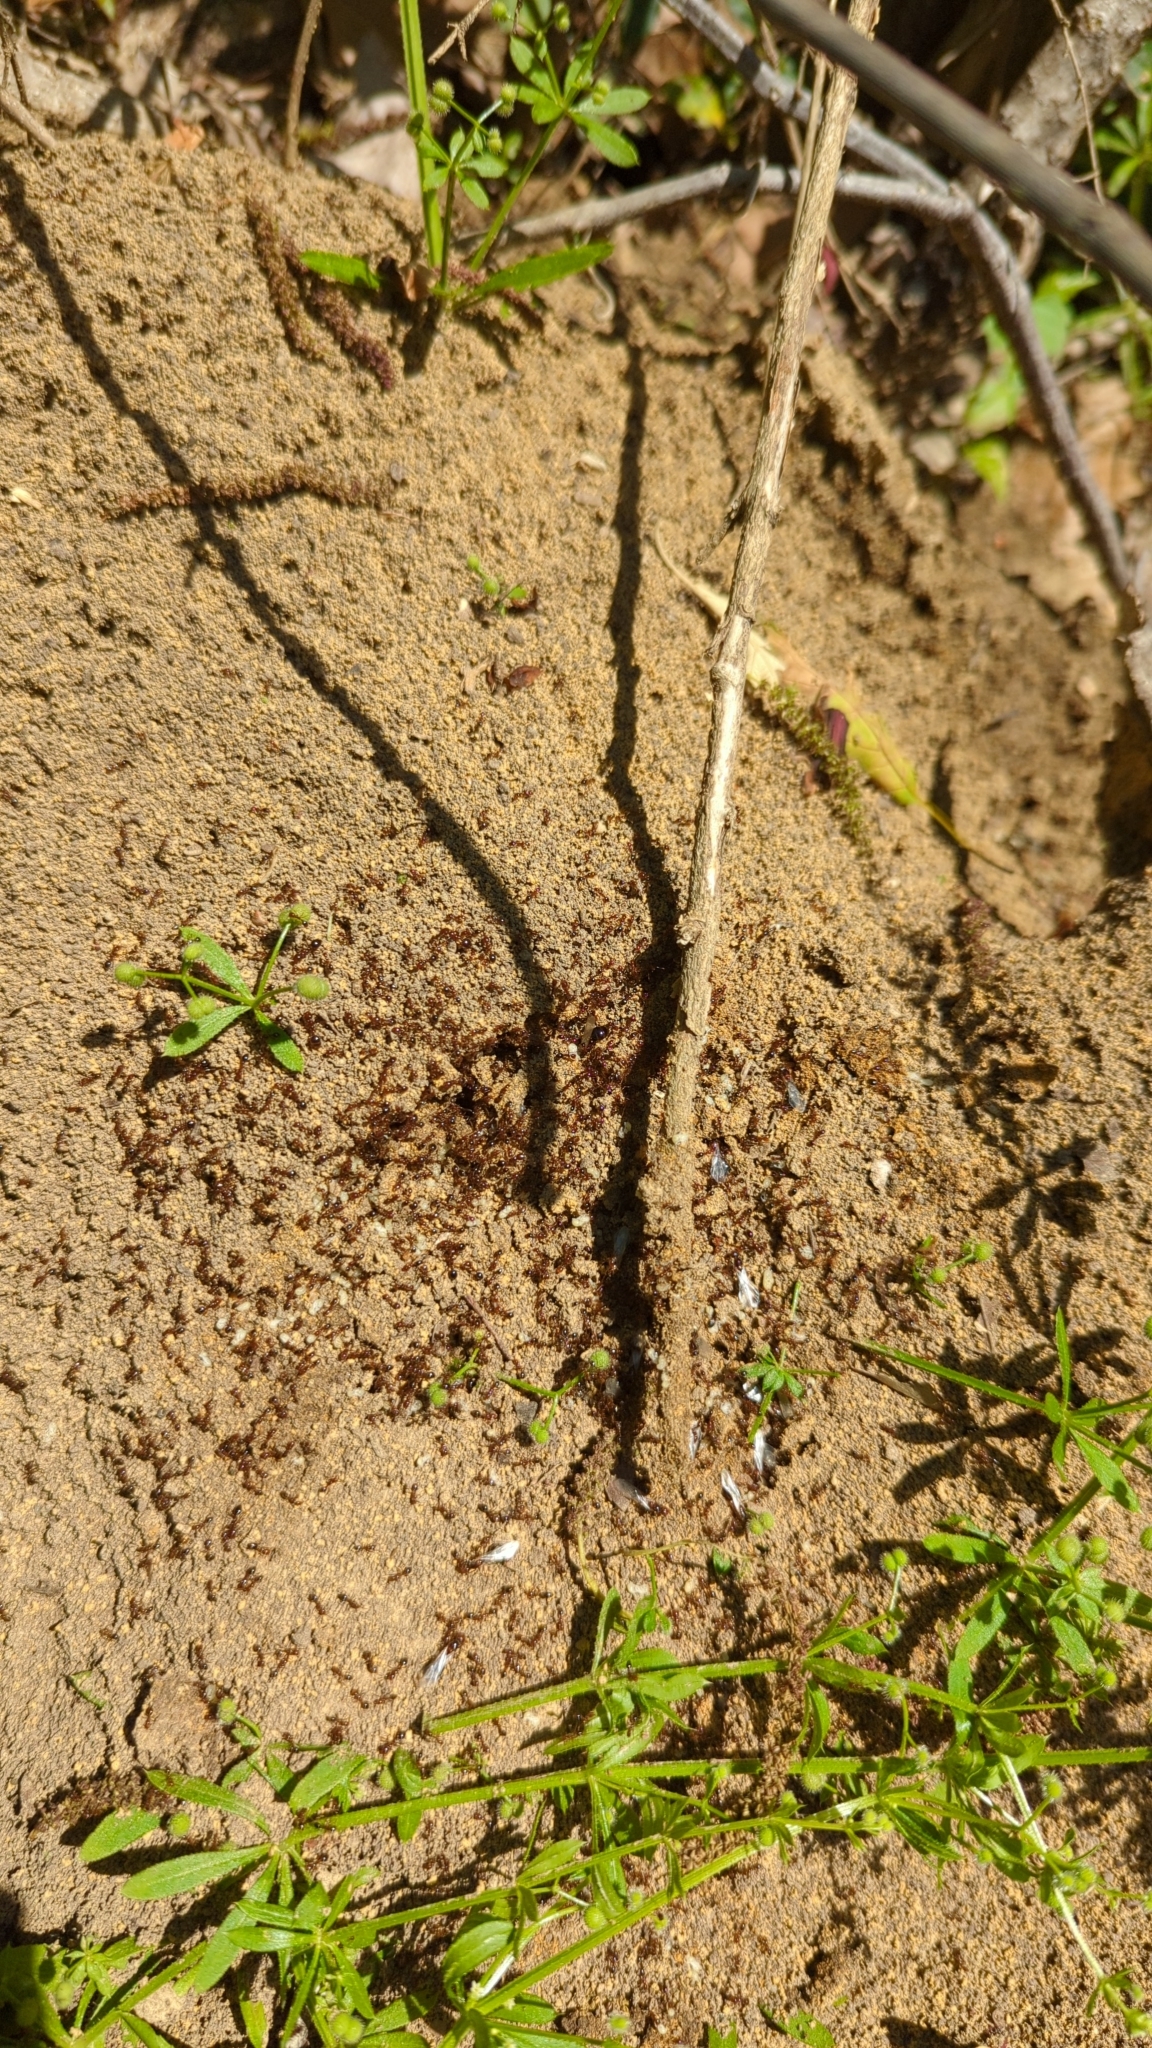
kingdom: Animalia
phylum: Arthropoda
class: Insecta
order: Hymenoptera
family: Formicidae
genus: Solenopsis
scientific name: Solenopsis invicta
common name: Red imported fire ant
